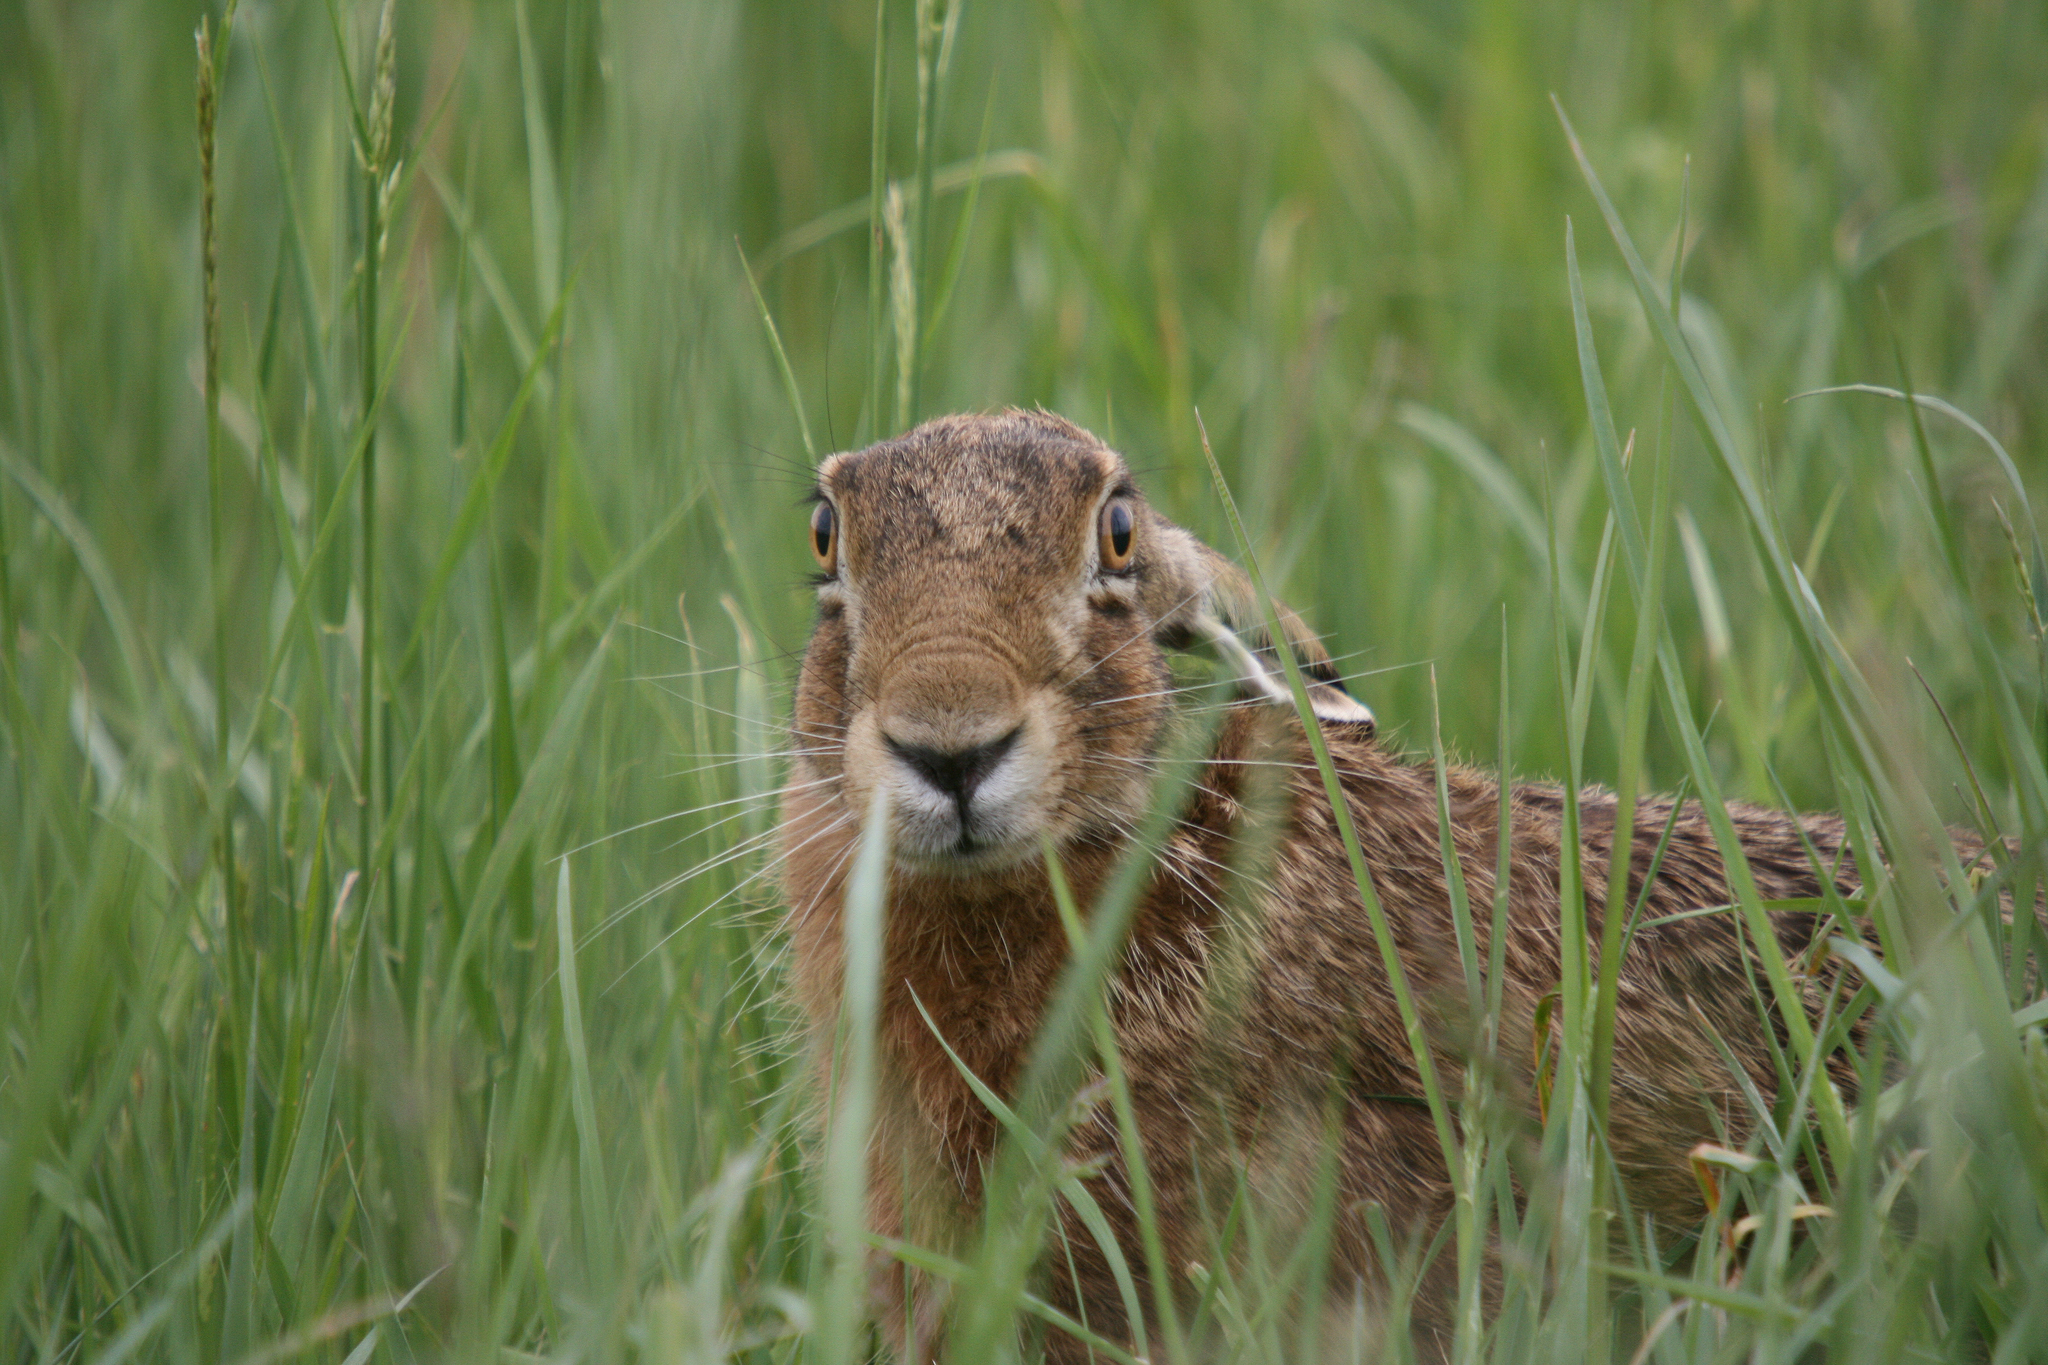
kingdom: Animalia
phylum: Chordata
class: Mammalia
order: Lagomorpha
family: Leporidae
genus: Lepus
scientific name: Lepus europaeus
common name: European hare
